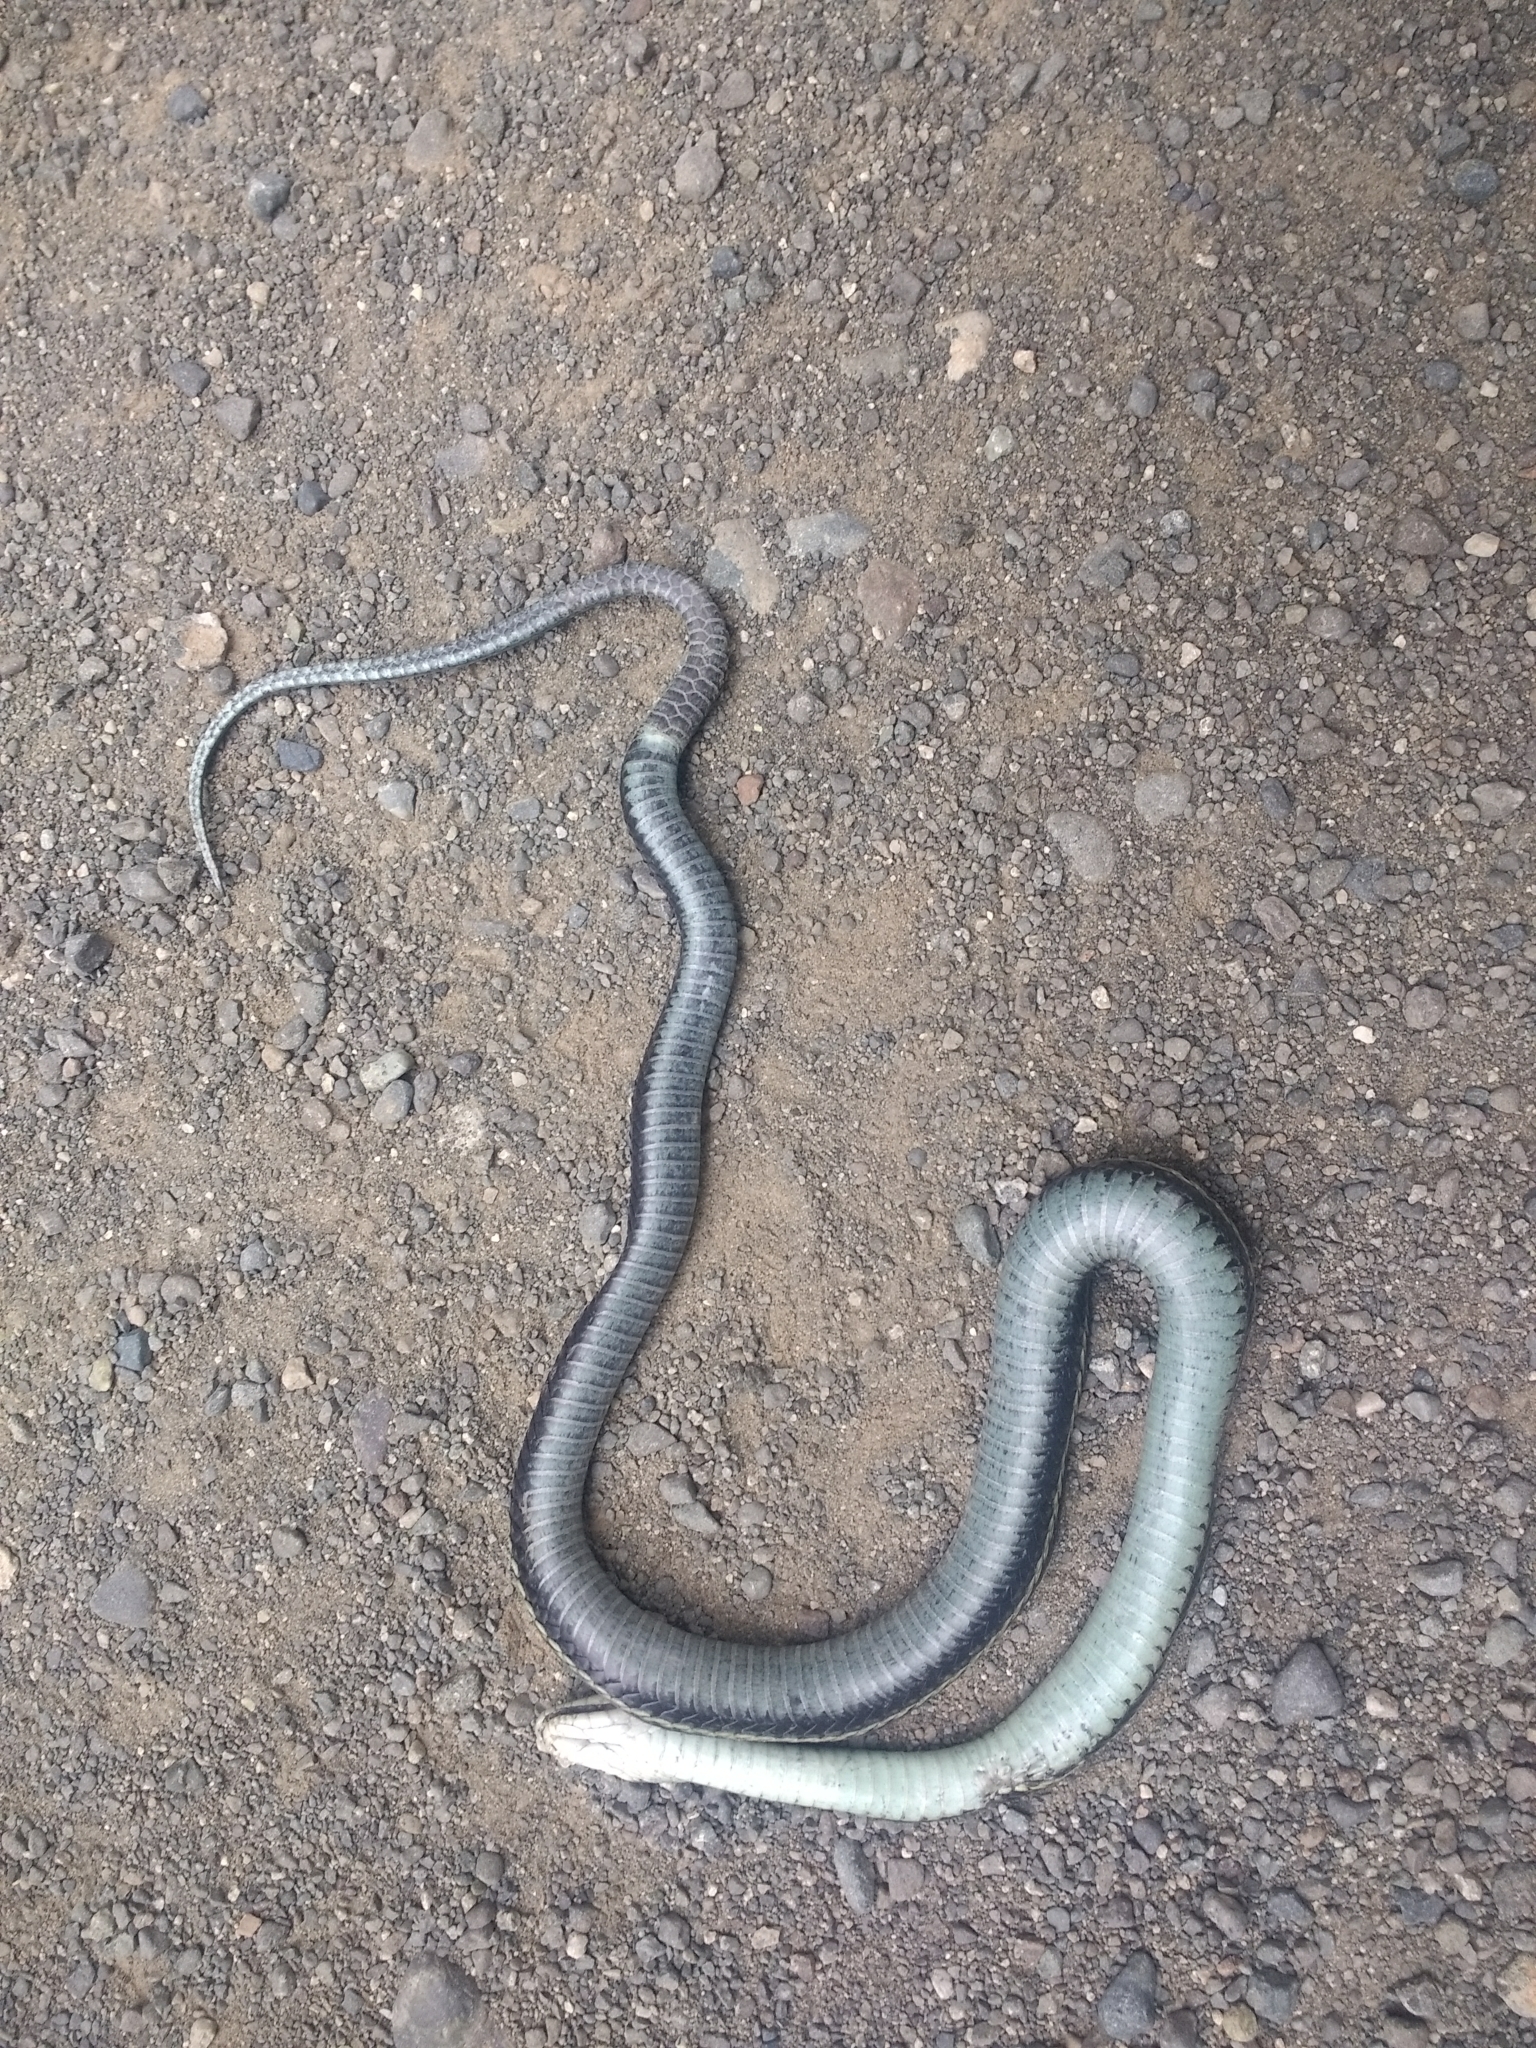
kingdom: Animalia
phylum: Chordata
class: Squamata
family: Colubridae
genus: Thamnophis
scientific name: Thamnophis sirtalis
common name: Common garter snake
